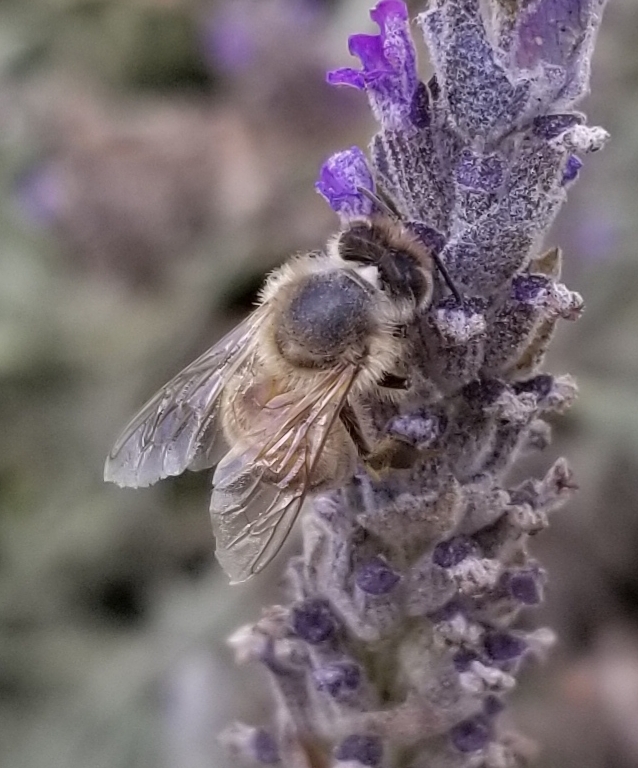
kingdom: Animalia
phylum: Arthropoda
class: Insecta
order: Hymenoptera
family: Apidae
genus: Apis
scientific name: Apis mellifera
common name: Honey bee
